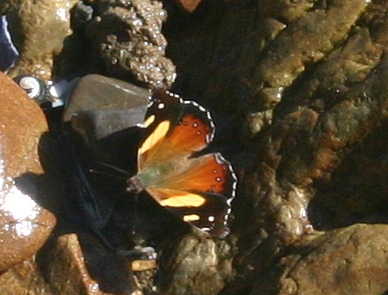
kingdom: Animalia
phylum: Arthropoda
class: Insecta
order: Lepidoptera
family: Nymphalidae
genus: Vanessa
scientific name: Vanessa itea
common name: Yellow admiral
